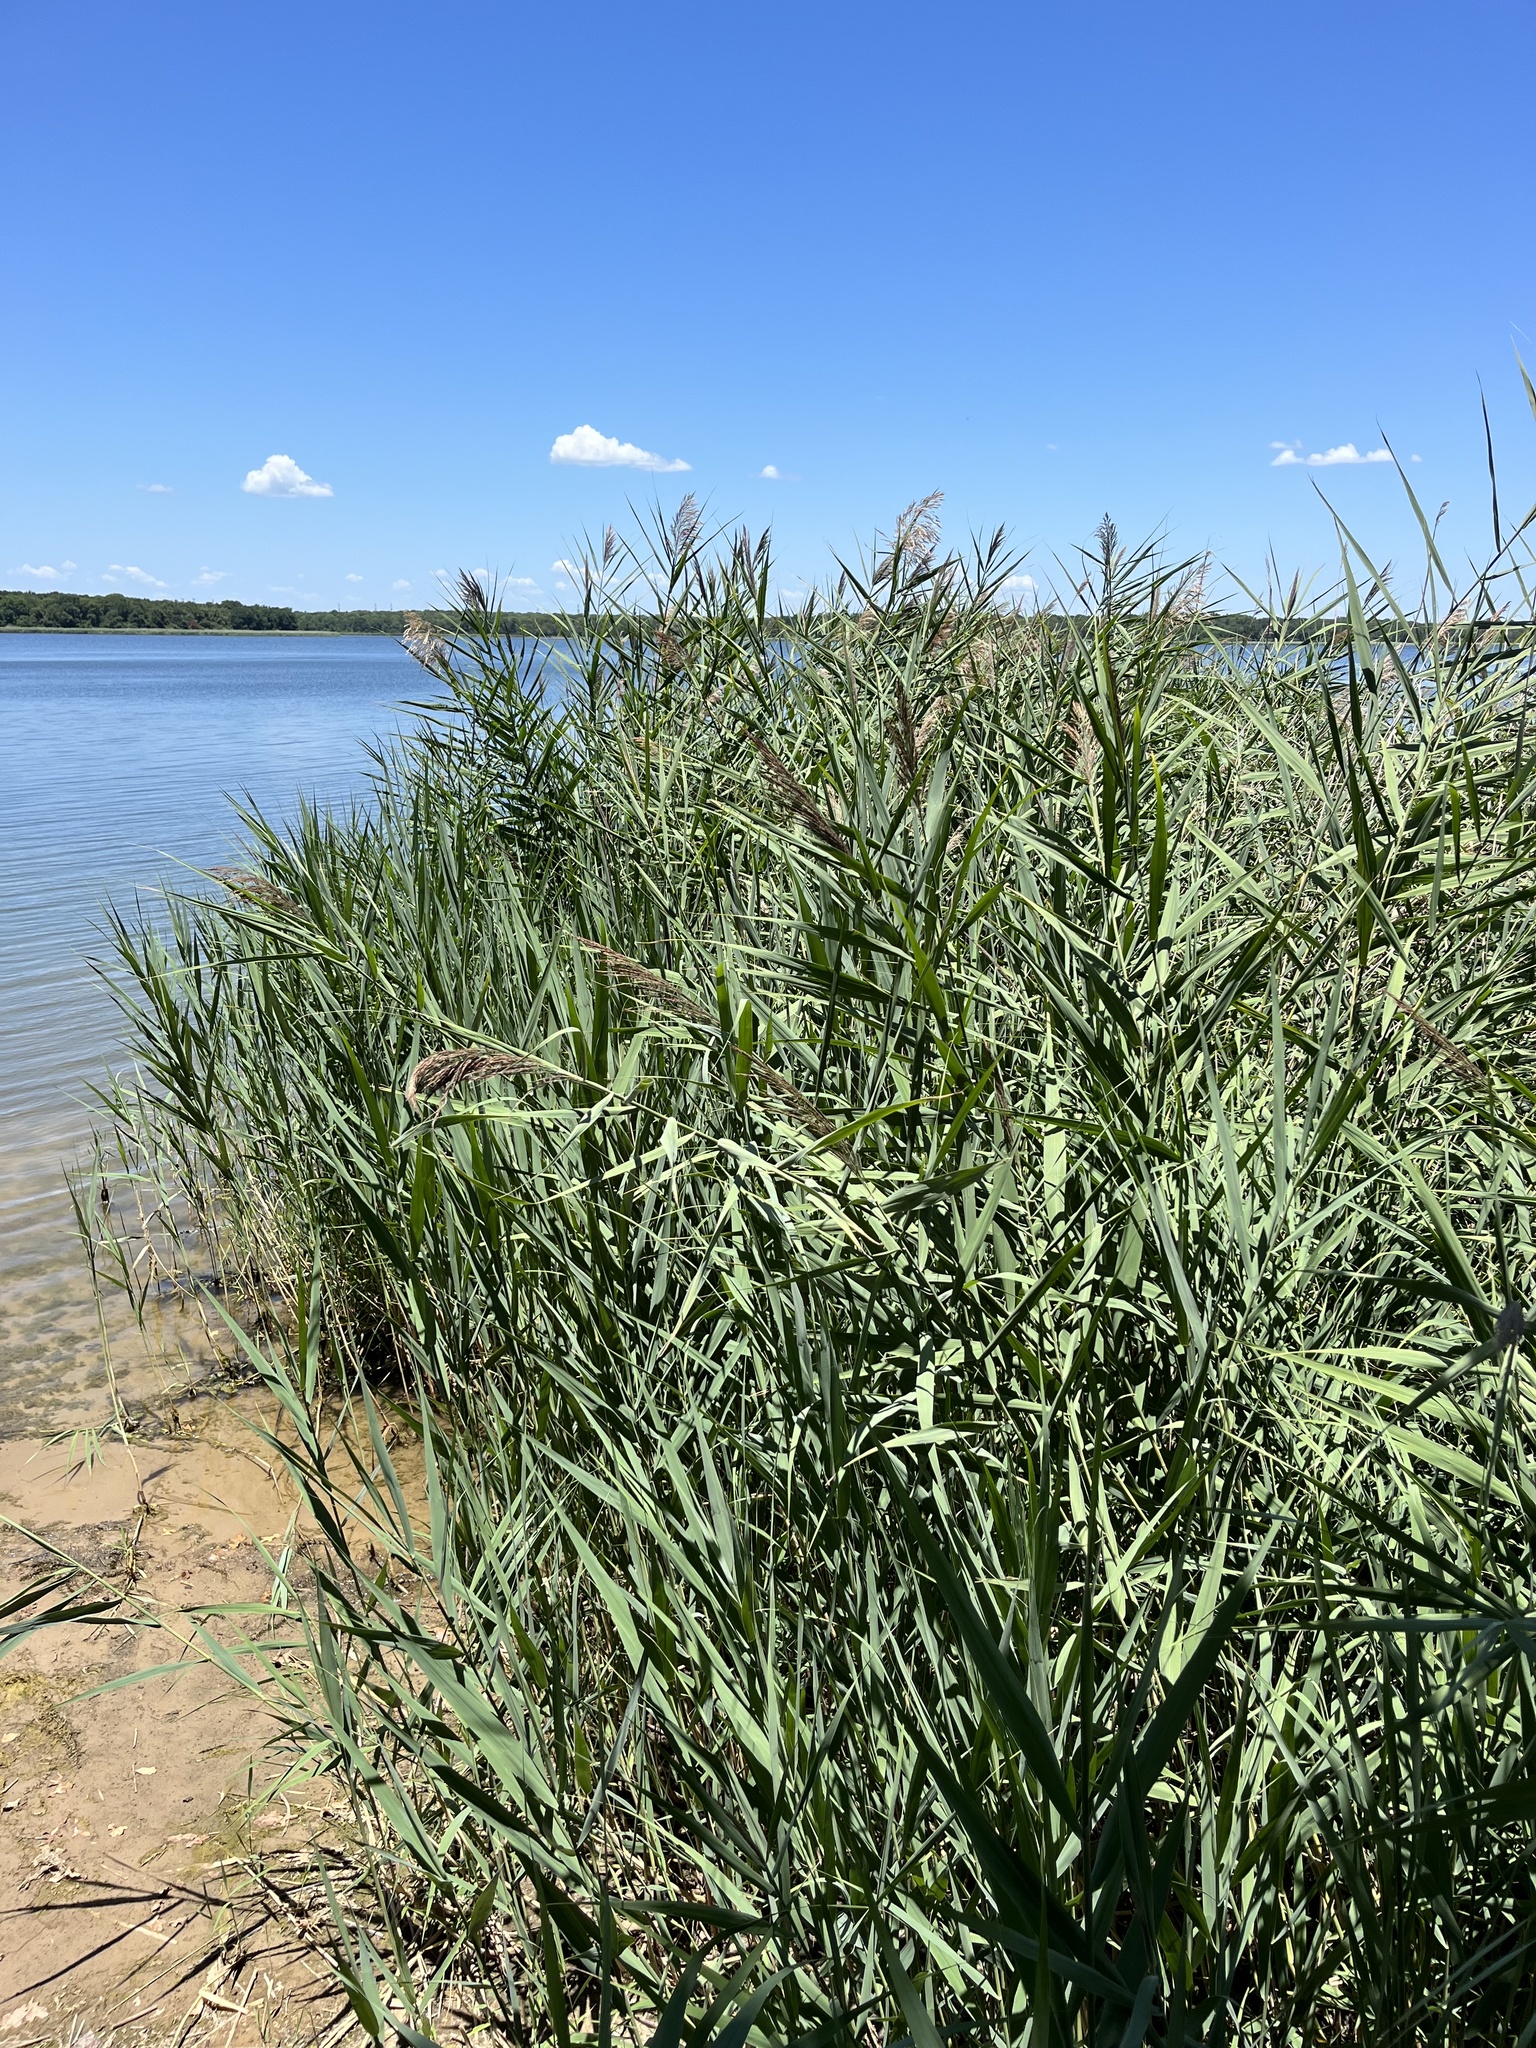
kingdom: Plantae
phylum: Tracheophyta
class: Liliopsida
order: Poales
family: Poaceae
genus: Phragmites
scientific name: Phragmites australis
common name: Common reed
